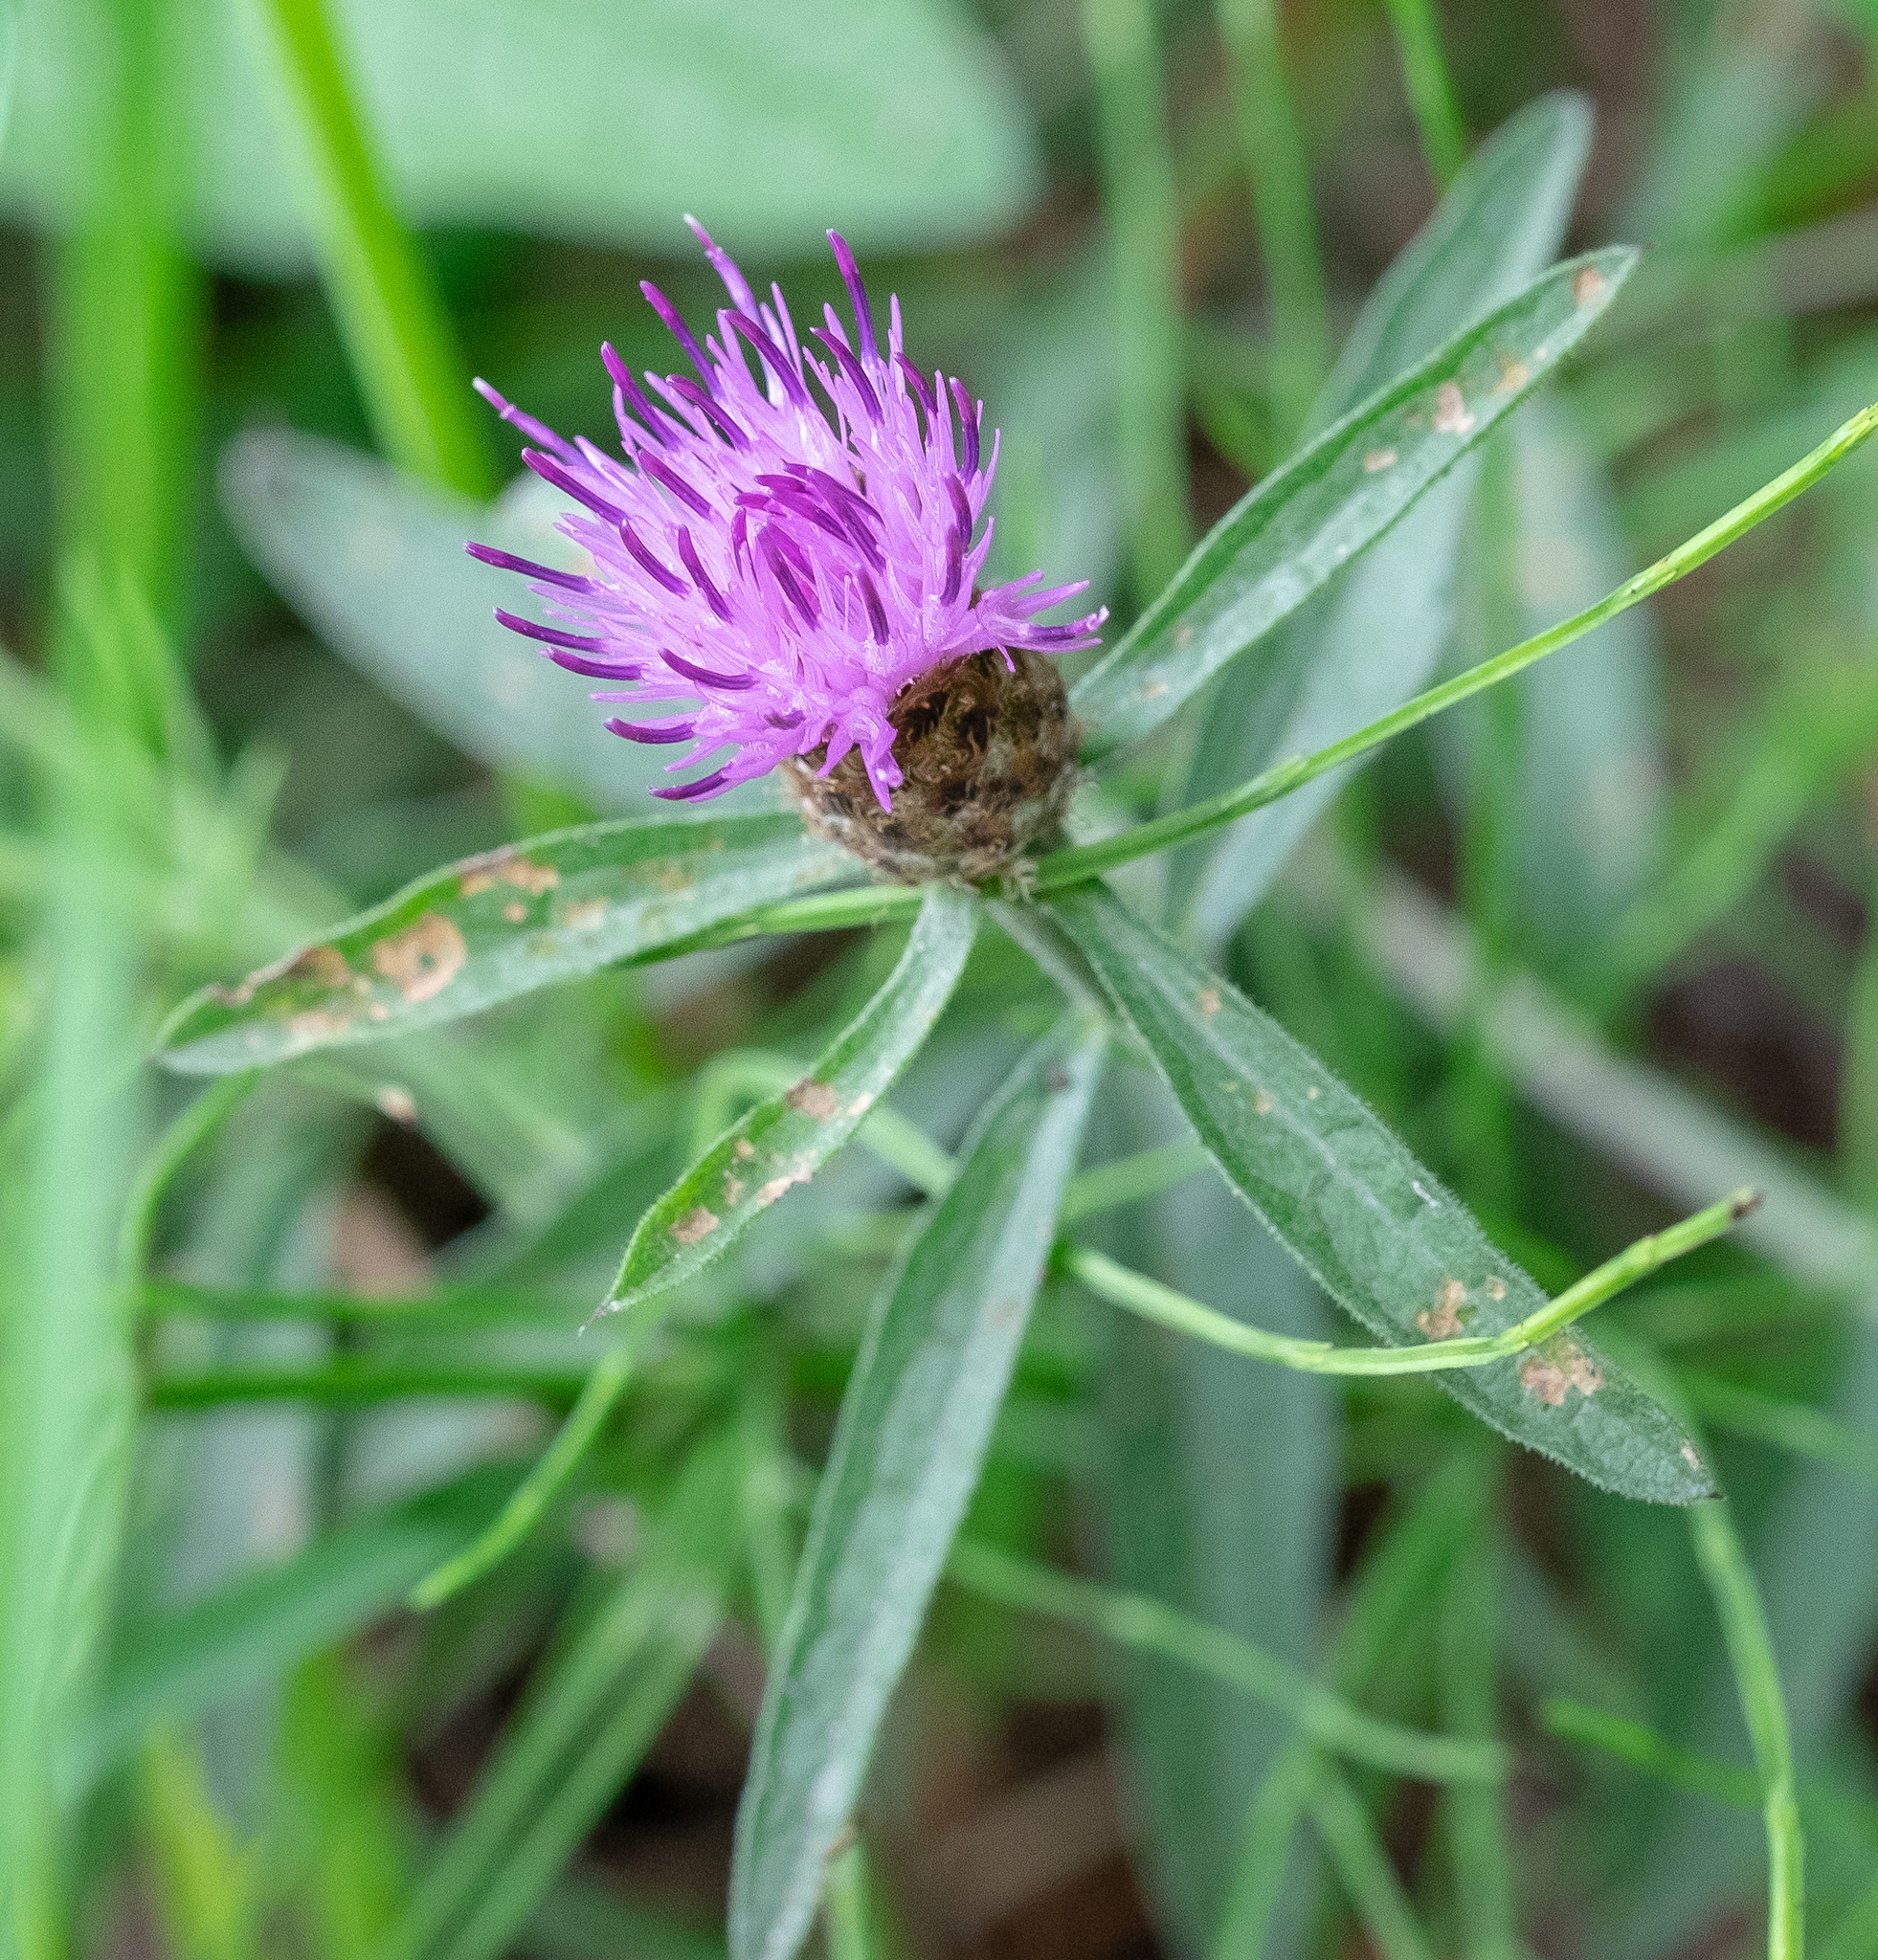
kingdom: Plantae
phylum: Tracheophyta
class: Magnoliopsida
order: Asterales
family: Asteraceae
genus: Centaurea
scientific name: Centaurea nigra
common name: Lesser knapweed
